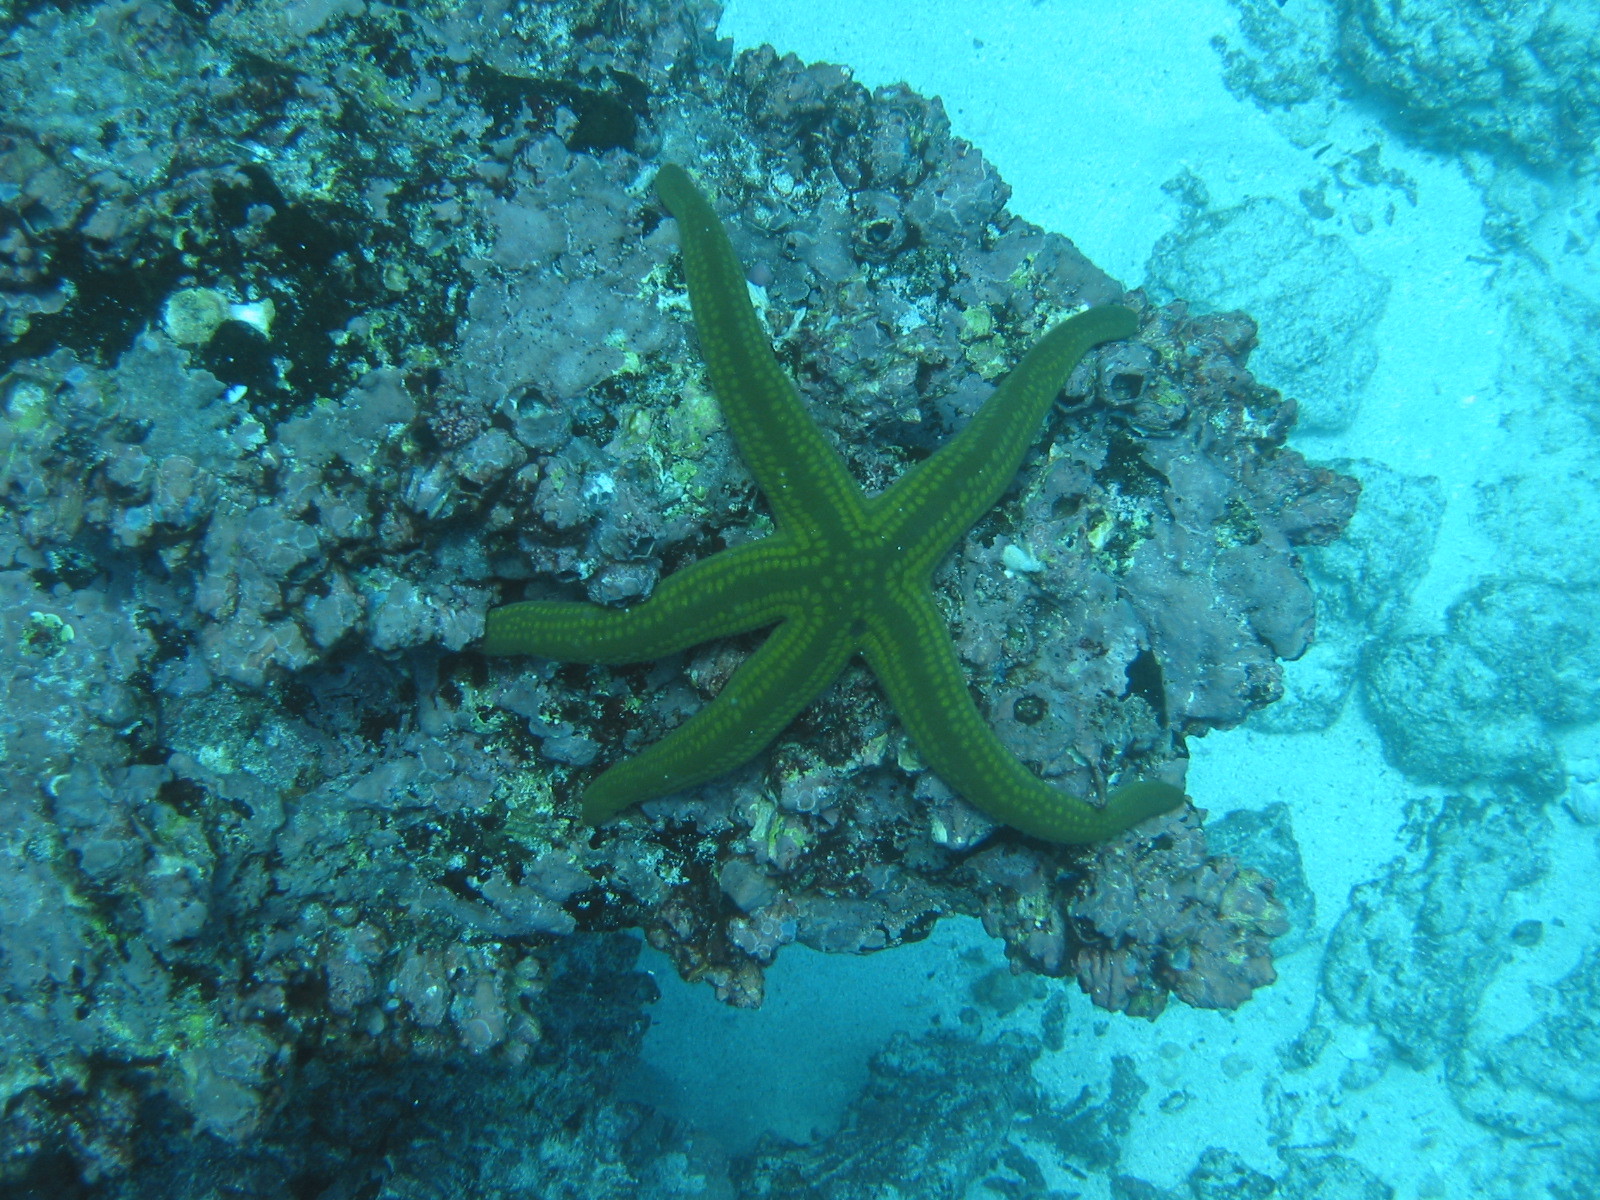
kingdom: Animalia
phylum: Echinodermata
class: Asteroidea
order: Valvatida
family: Ophidiasteridae
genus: Pharia
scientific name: Pharia pyramidata
